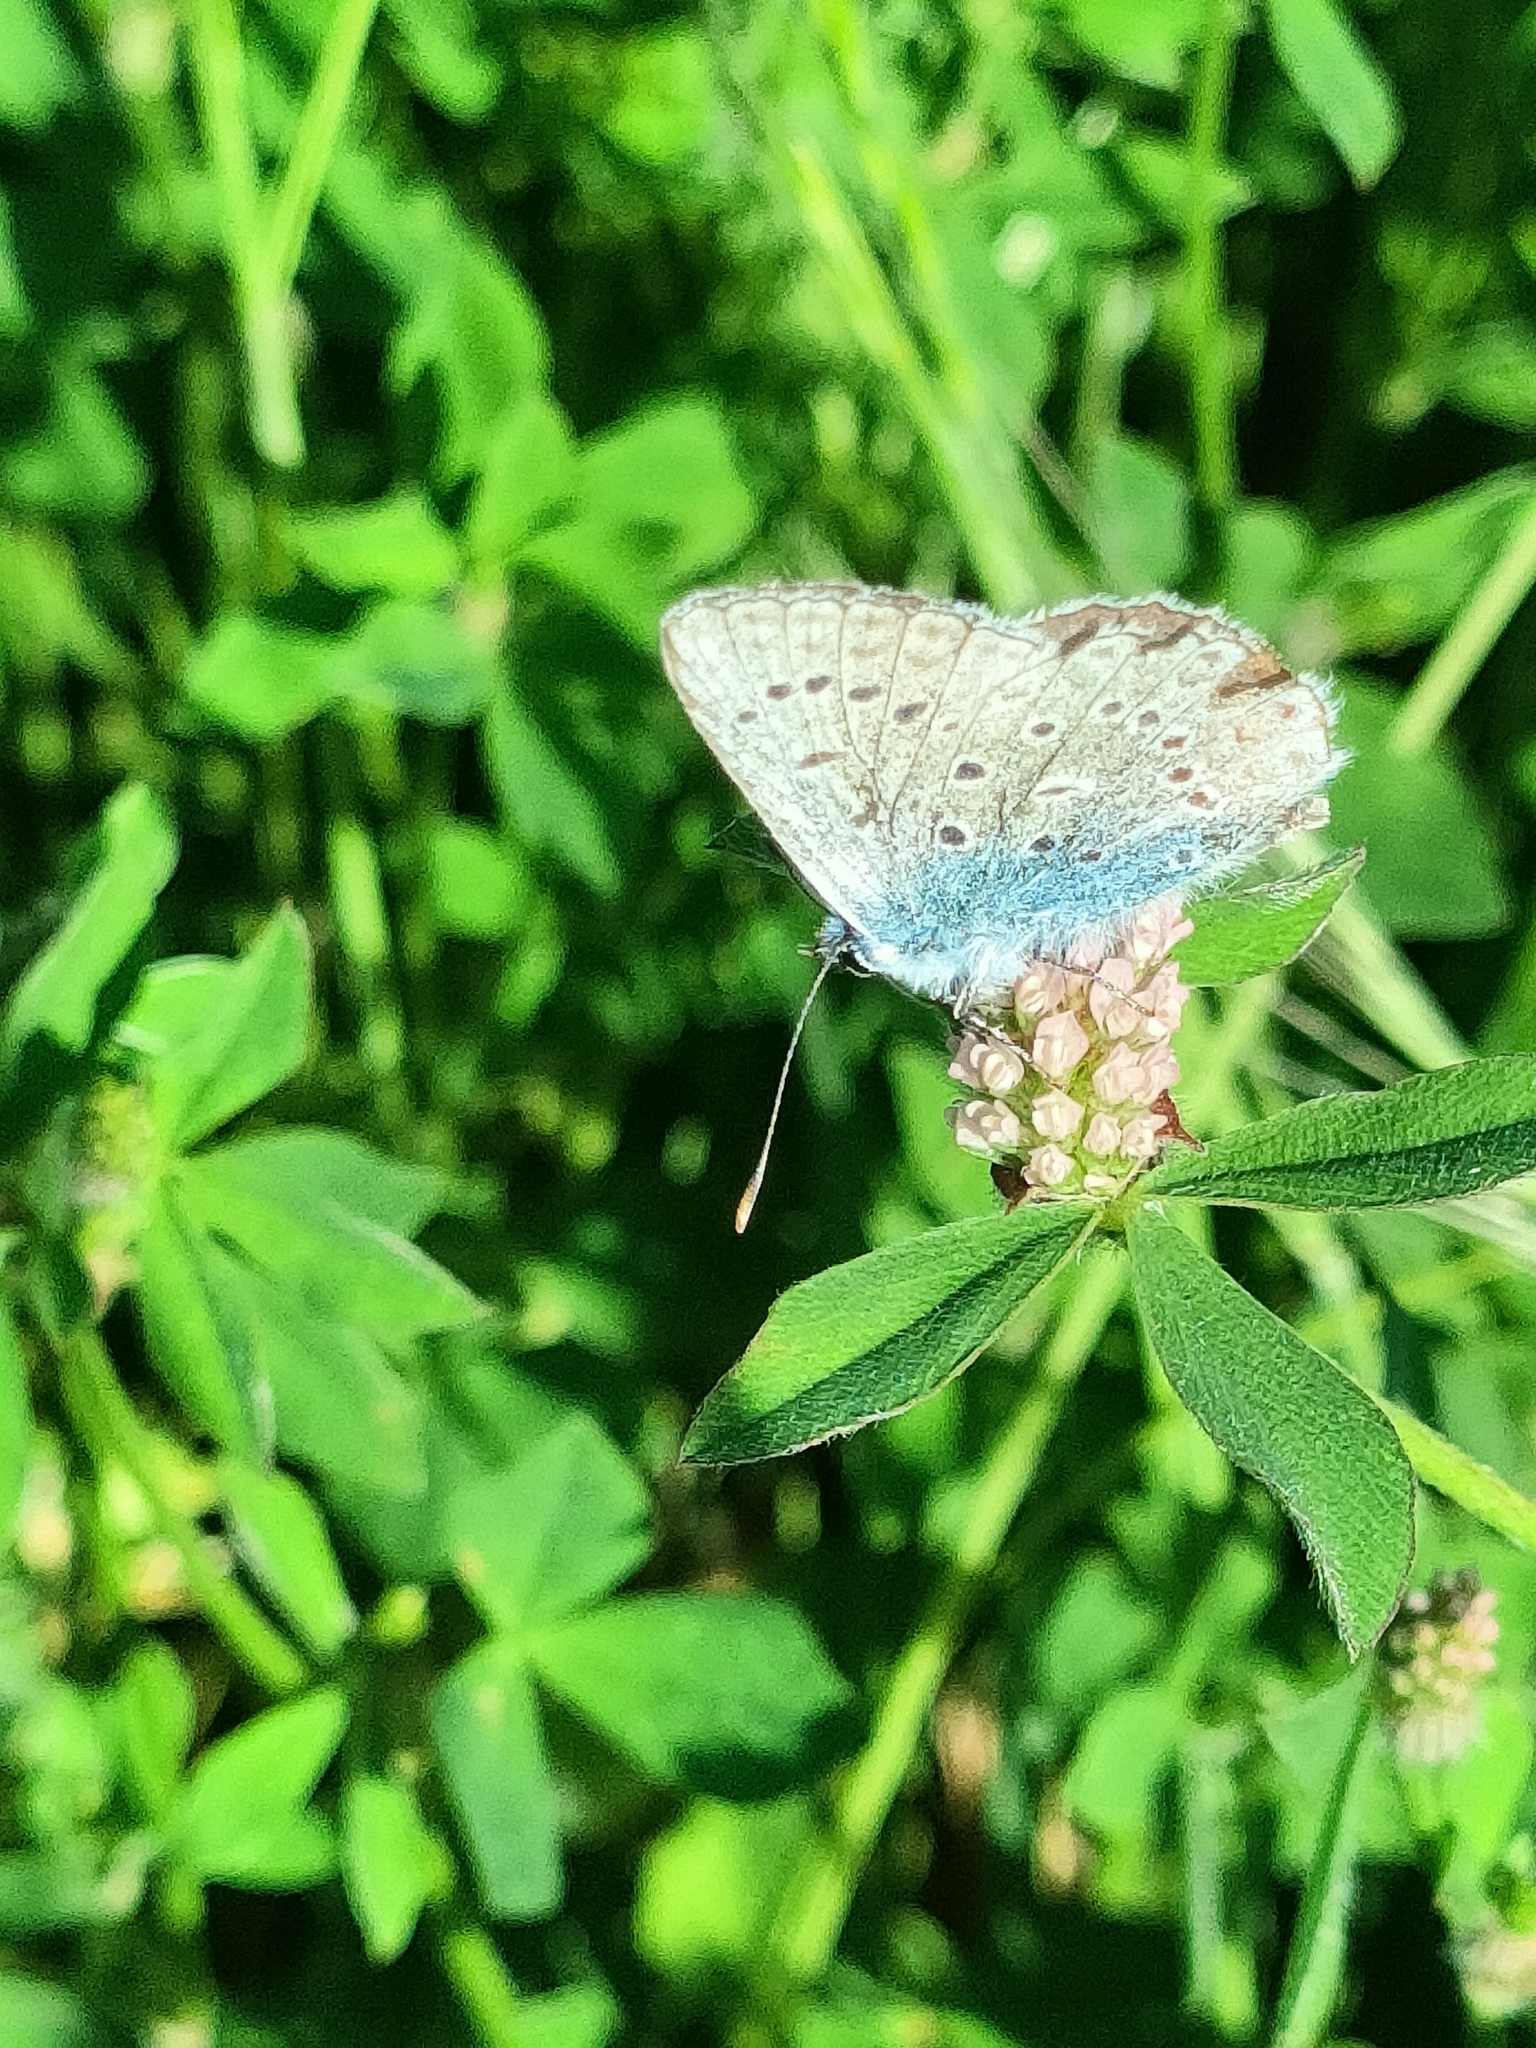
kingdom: Animalia
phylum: Arthropoda
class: Insecta
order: Lepidoptera
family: Lycaenidae
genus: Polyommatus
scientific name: Polyommatus icarus
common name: Common blue
